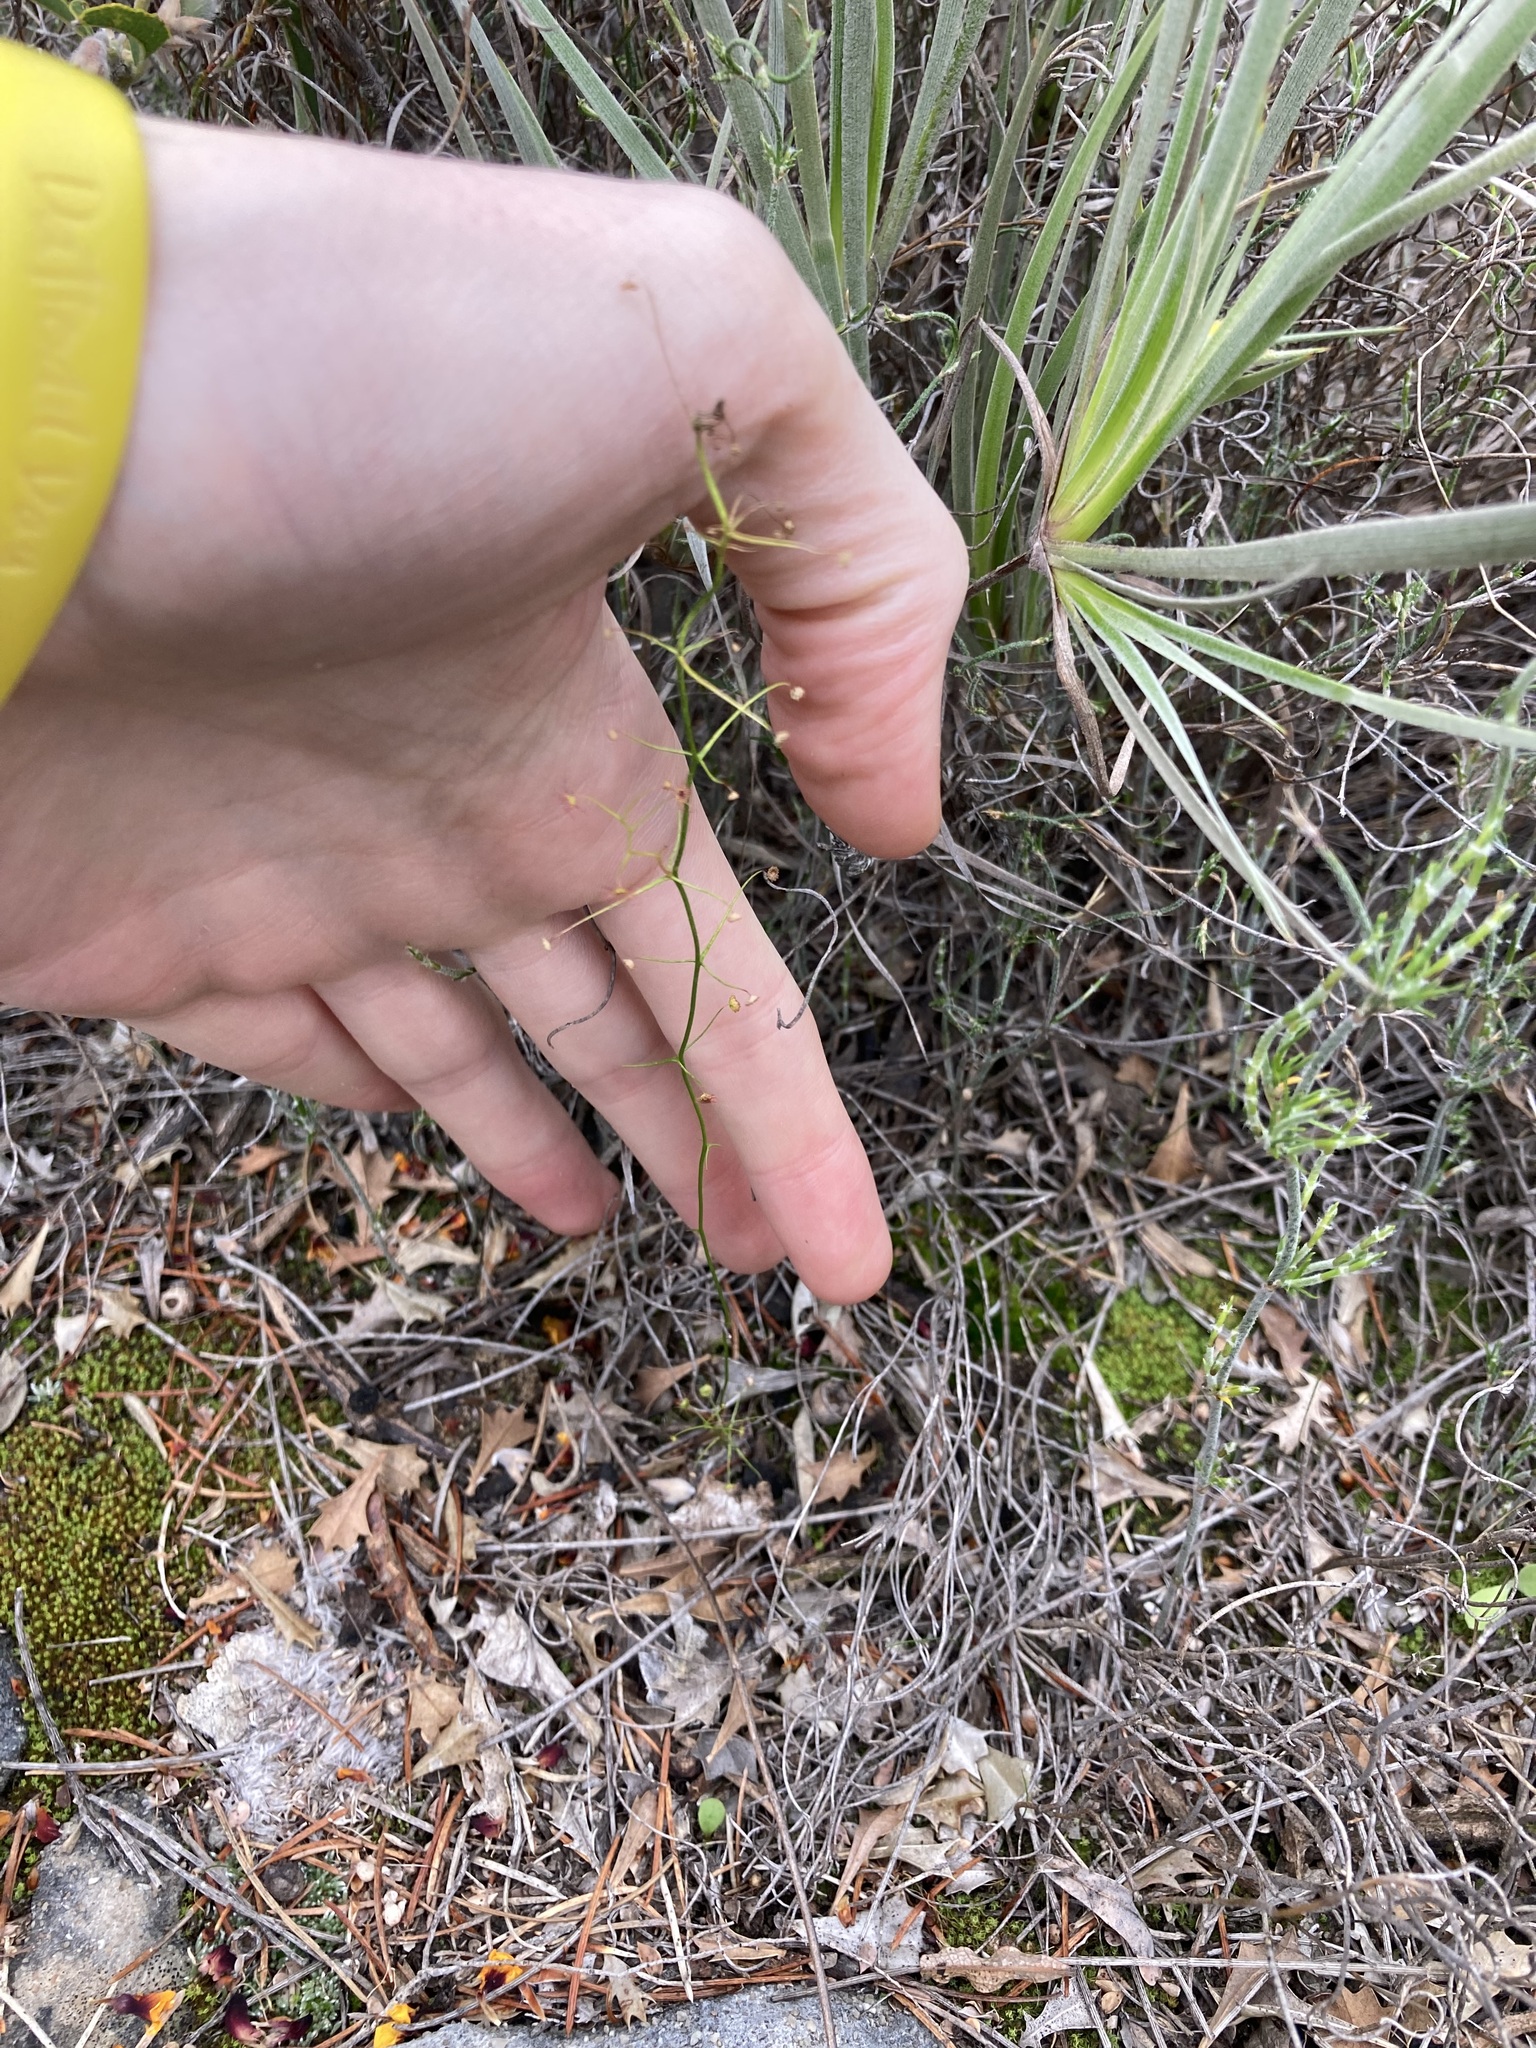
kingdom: Plantae
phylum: Tracheophyta
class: Magnoliopsida
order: Caryophyllales
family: Droseraceae
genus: Drosera
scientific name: Drosera pallida
